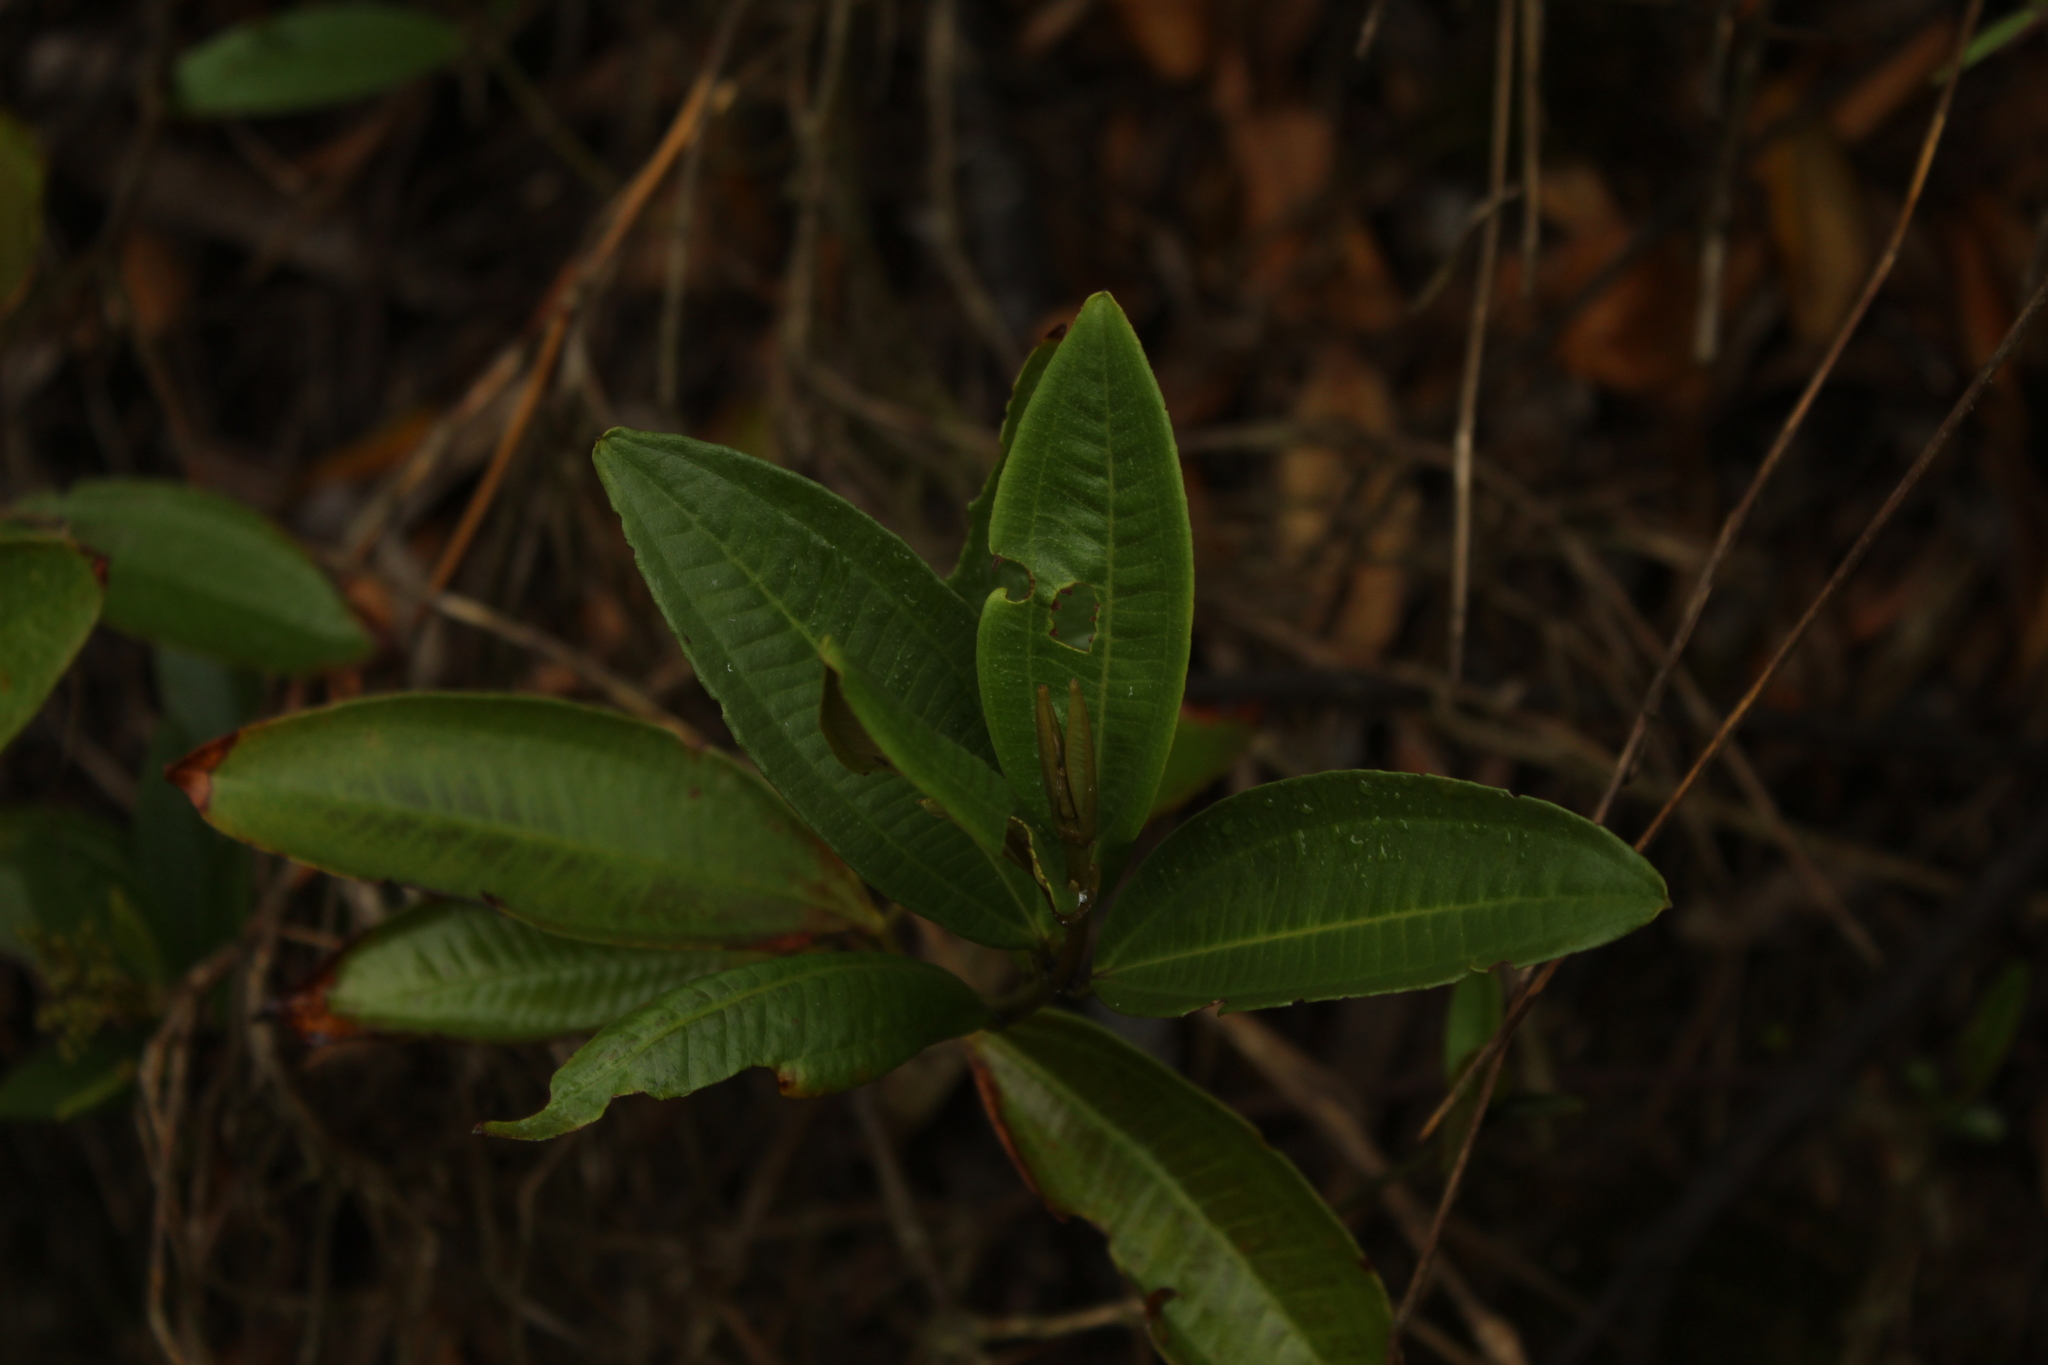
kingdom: Plantae
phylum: Tracheophyta
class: Magnoliopsida
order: Myrtales
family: Melastomataceae
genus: Miconia
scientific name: Miconia squamulosa
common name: Squamulose maya
